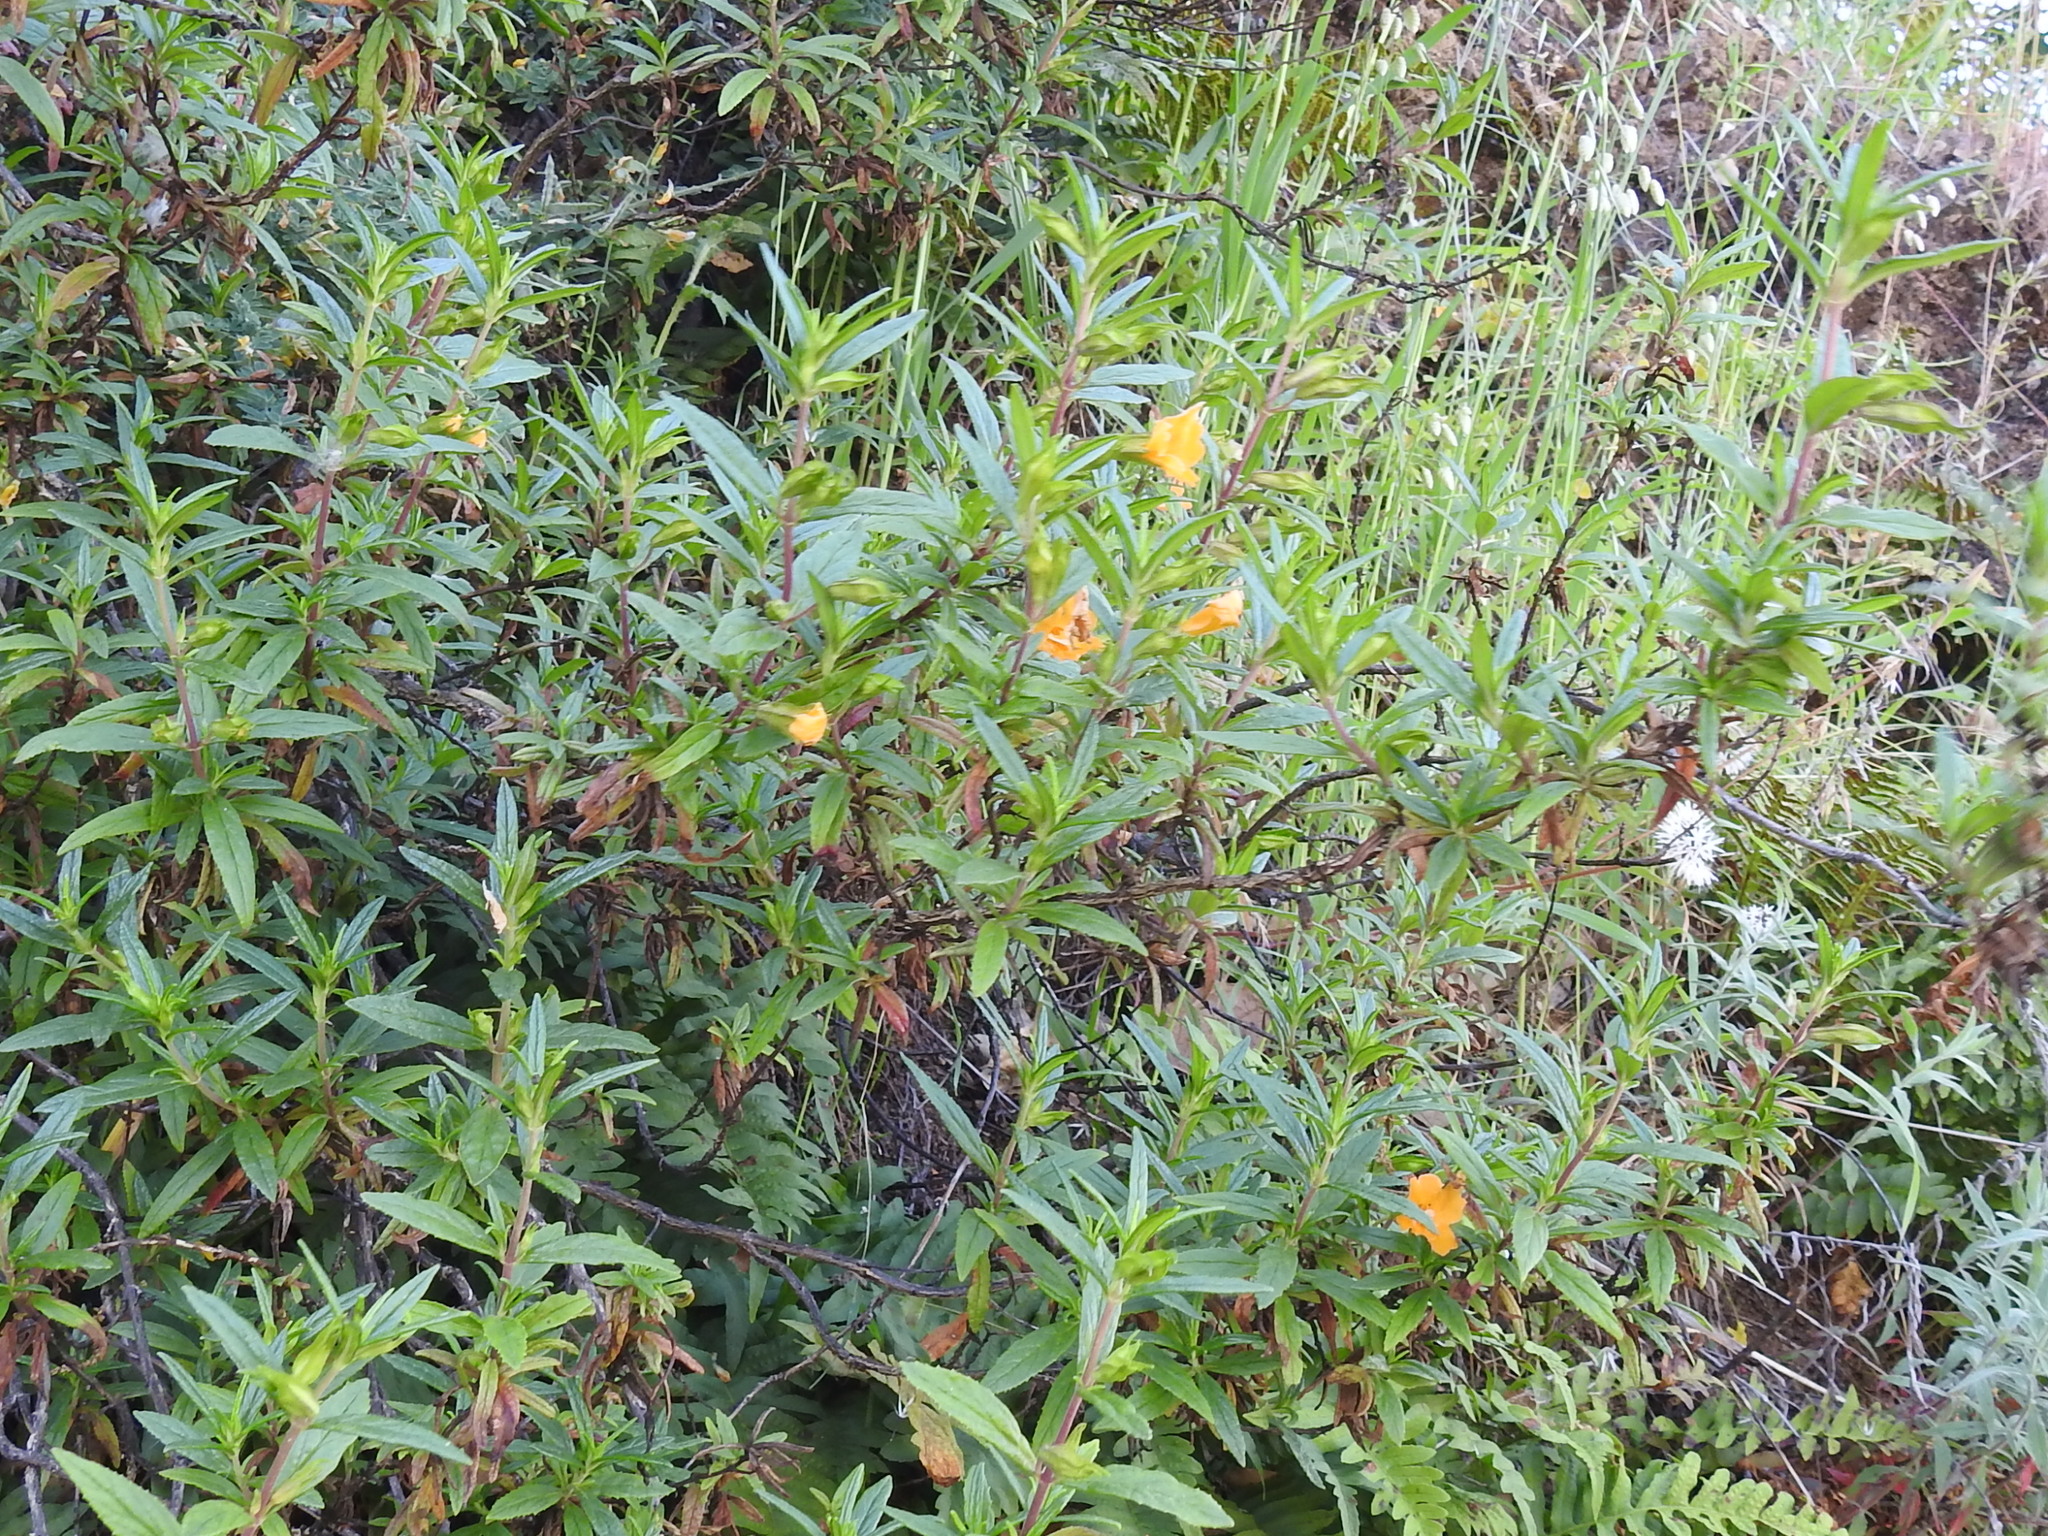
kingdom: Plantae
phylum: Tracheophyta
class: Magnoliopsida
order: Lamiales
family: Phrymaceae
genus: Diplacus
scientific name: Diplacus aurantiacus
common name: Bush monkey-flower
